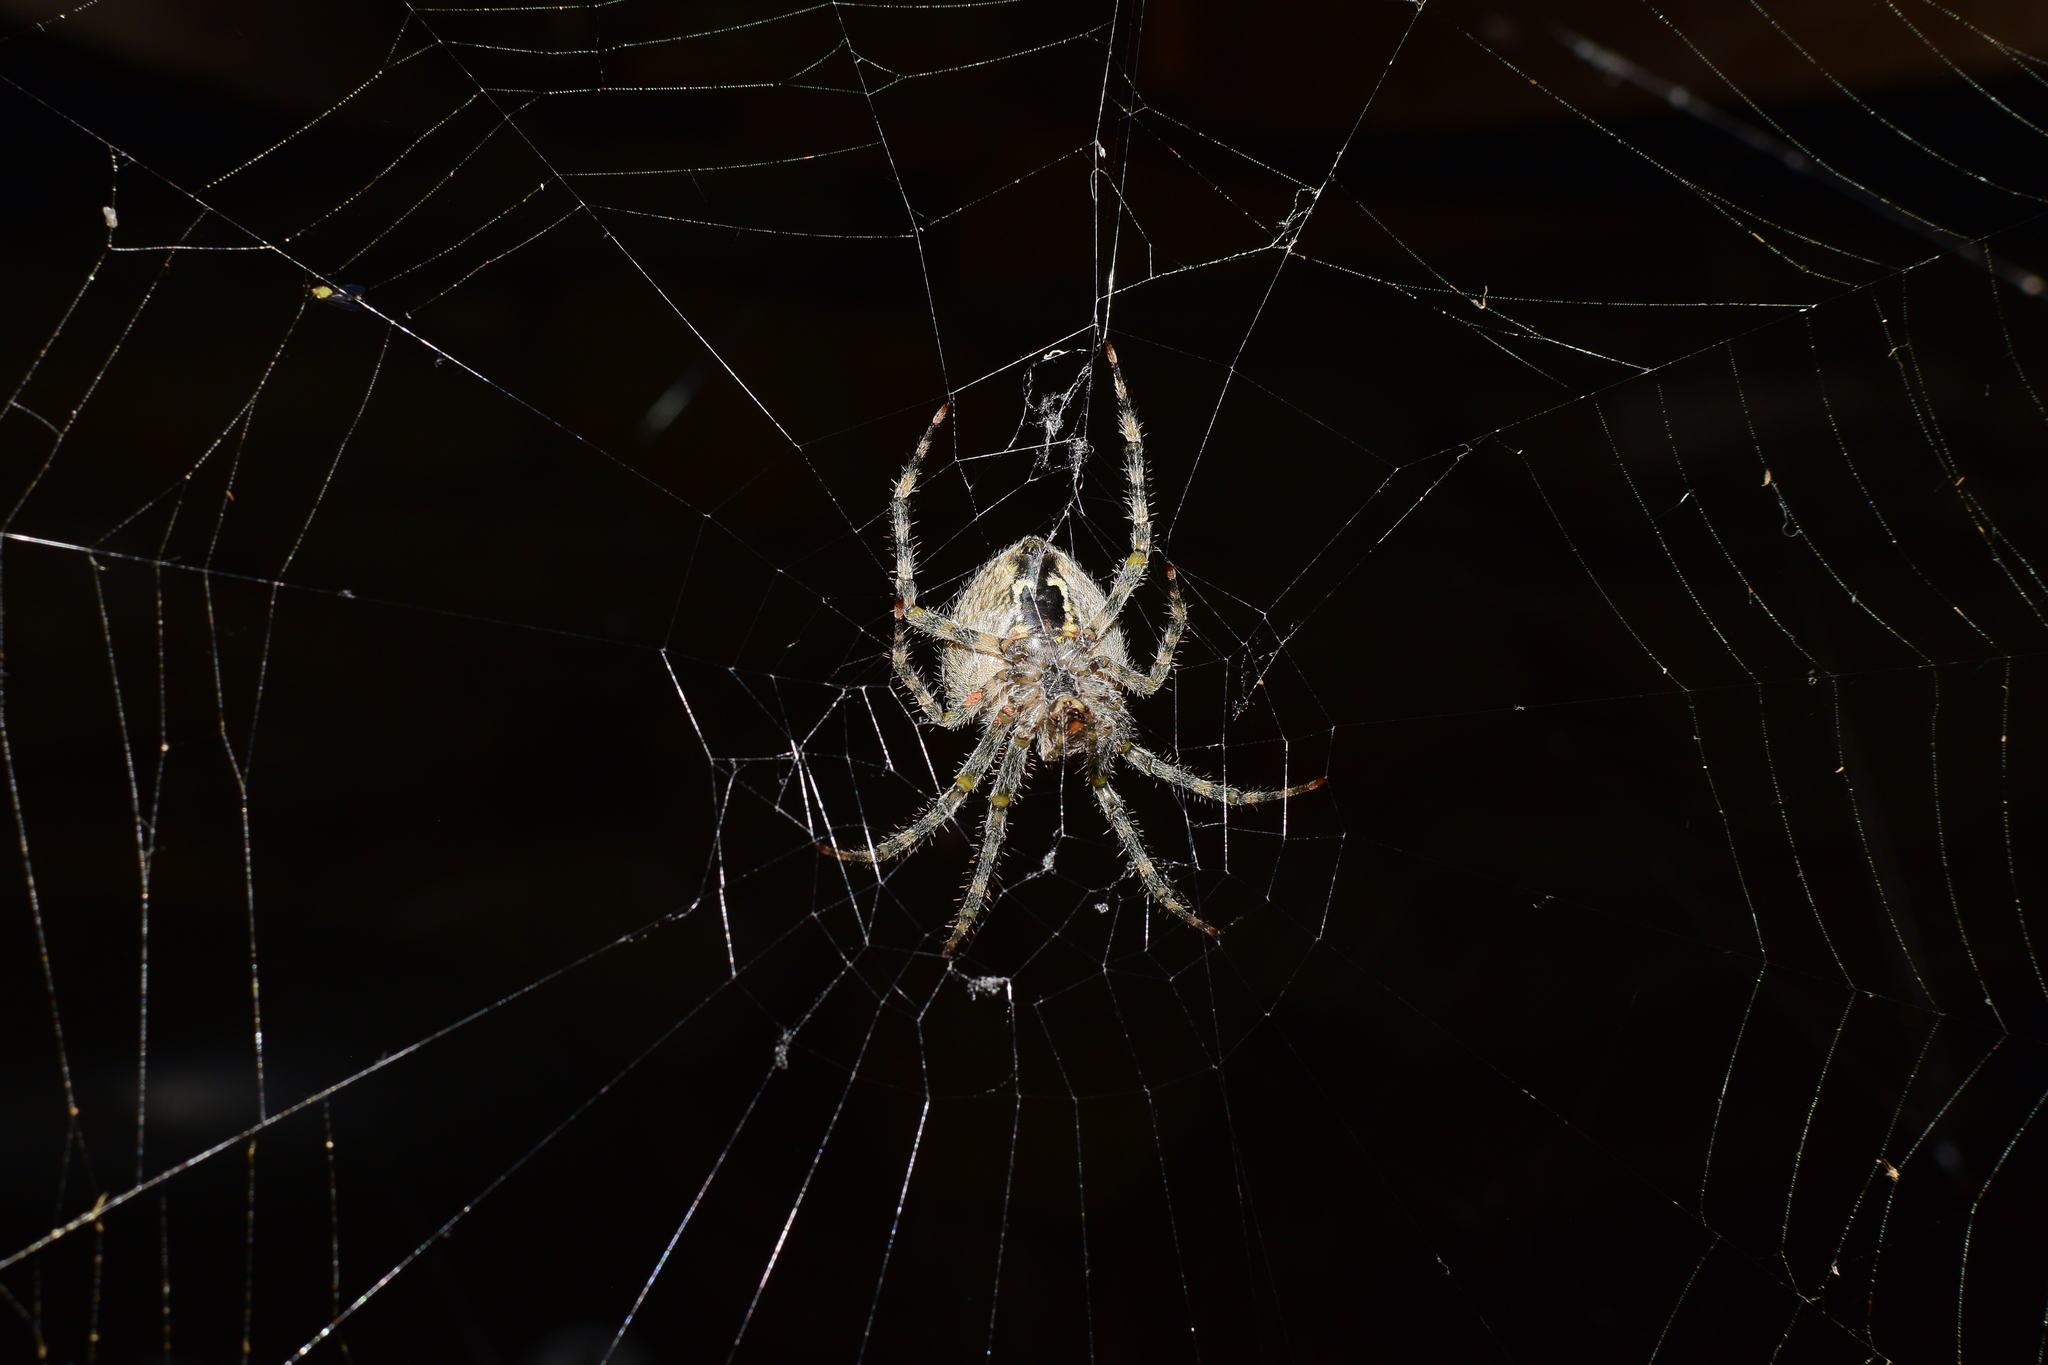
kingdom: Animalia
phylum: Arthropoda
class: Arachnida
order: Araneae
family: Araneidae
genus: Araneus
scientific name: Araneus cavaticus
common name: Barn orbweaver
